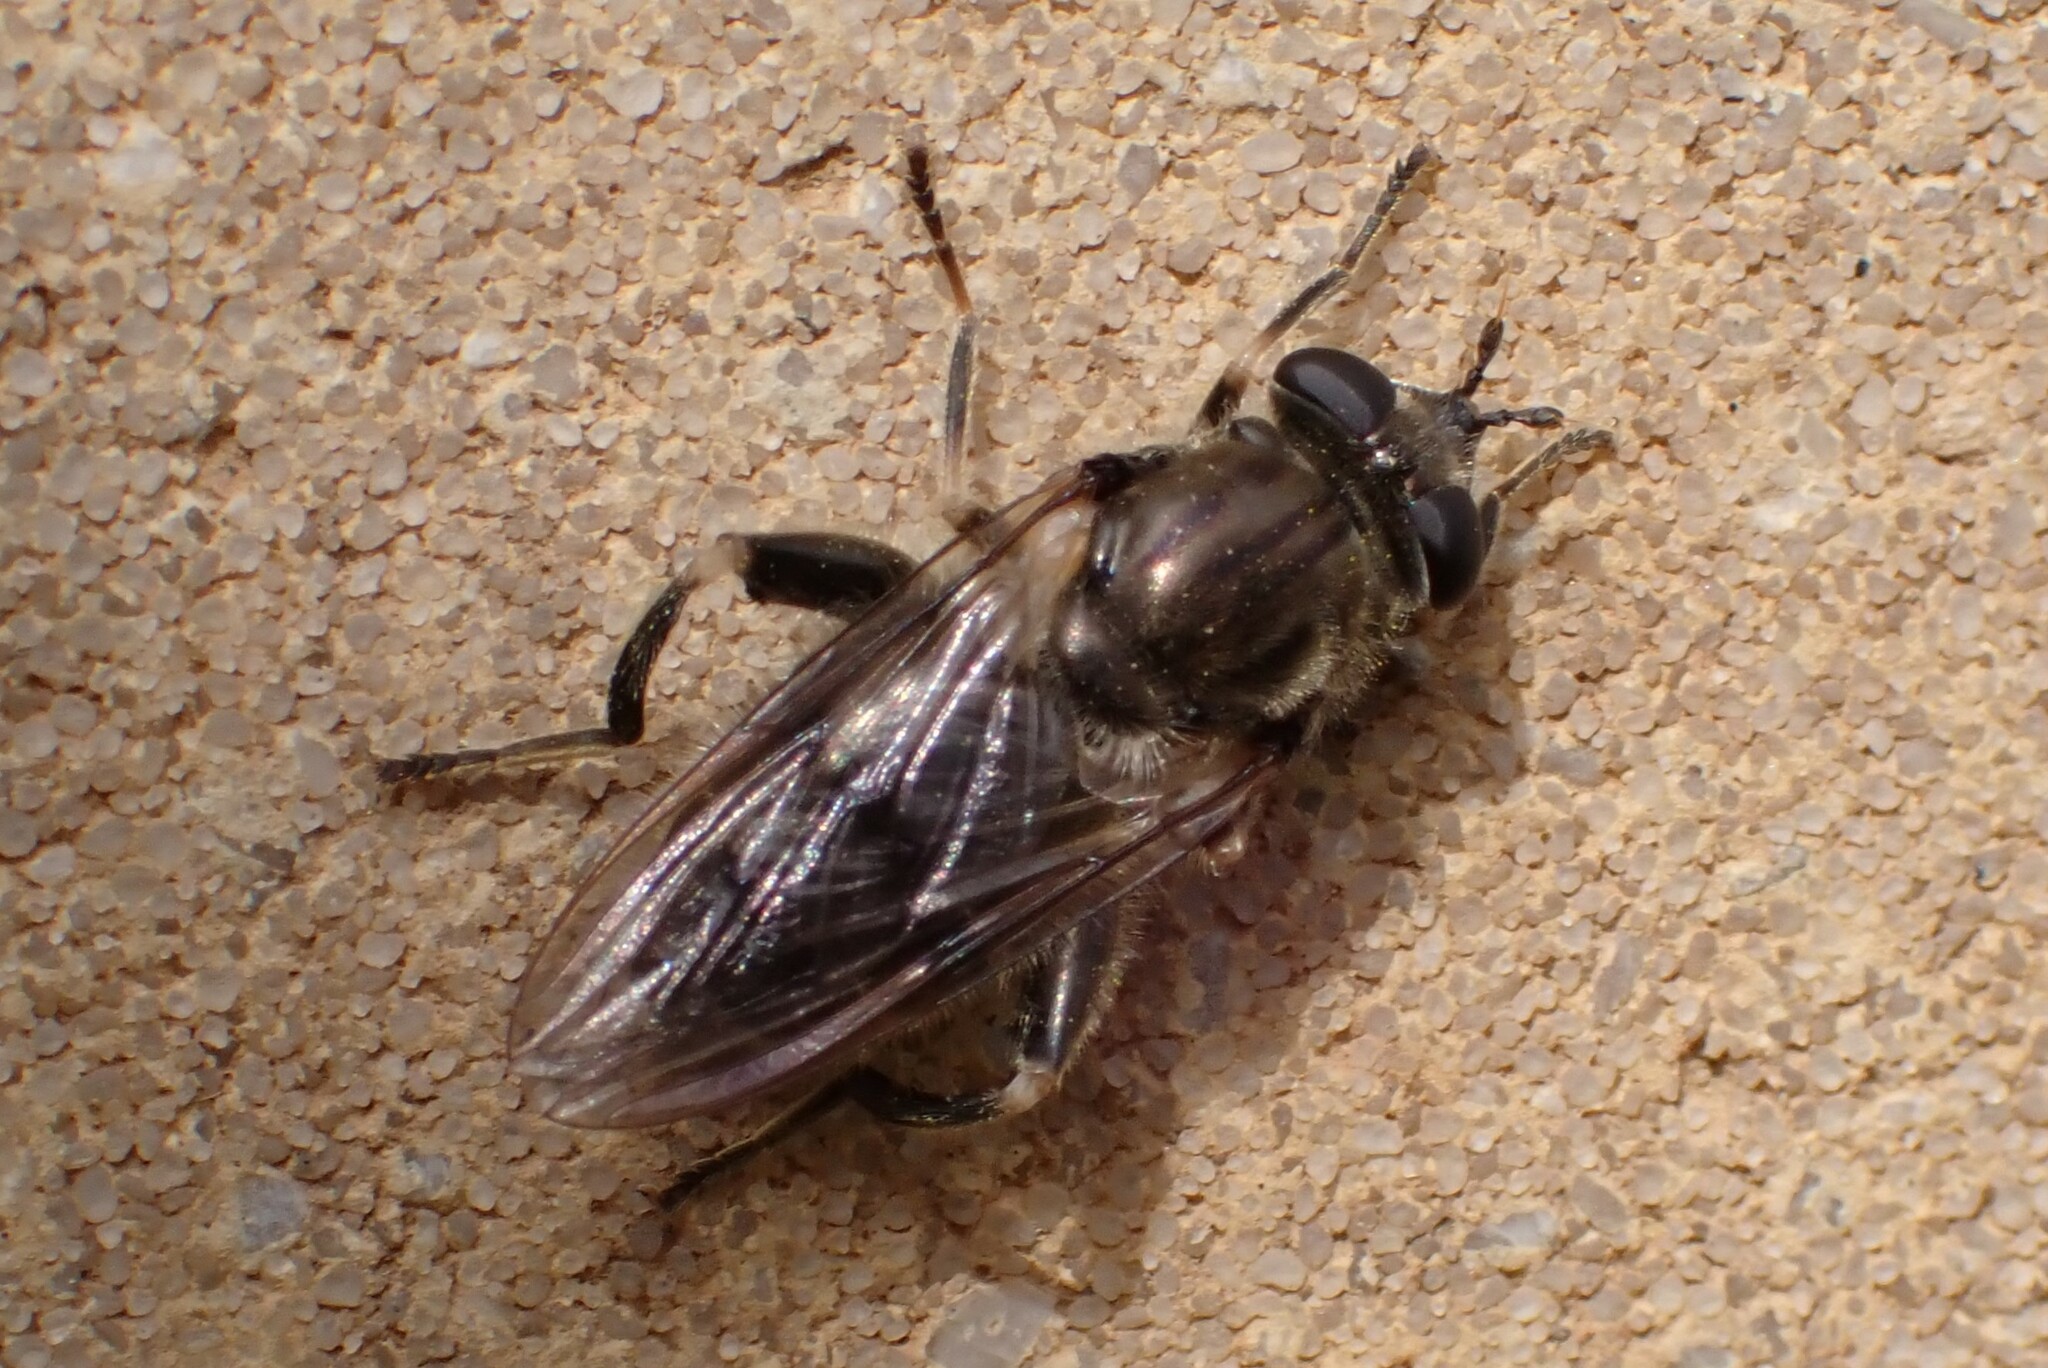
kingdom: Animalia
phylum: Arthropoda
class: Insecta
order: Diptera
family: Syrphidae
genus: Brachypalpus
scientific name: Brachypalpus oarus
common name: Eastern catkin fly
